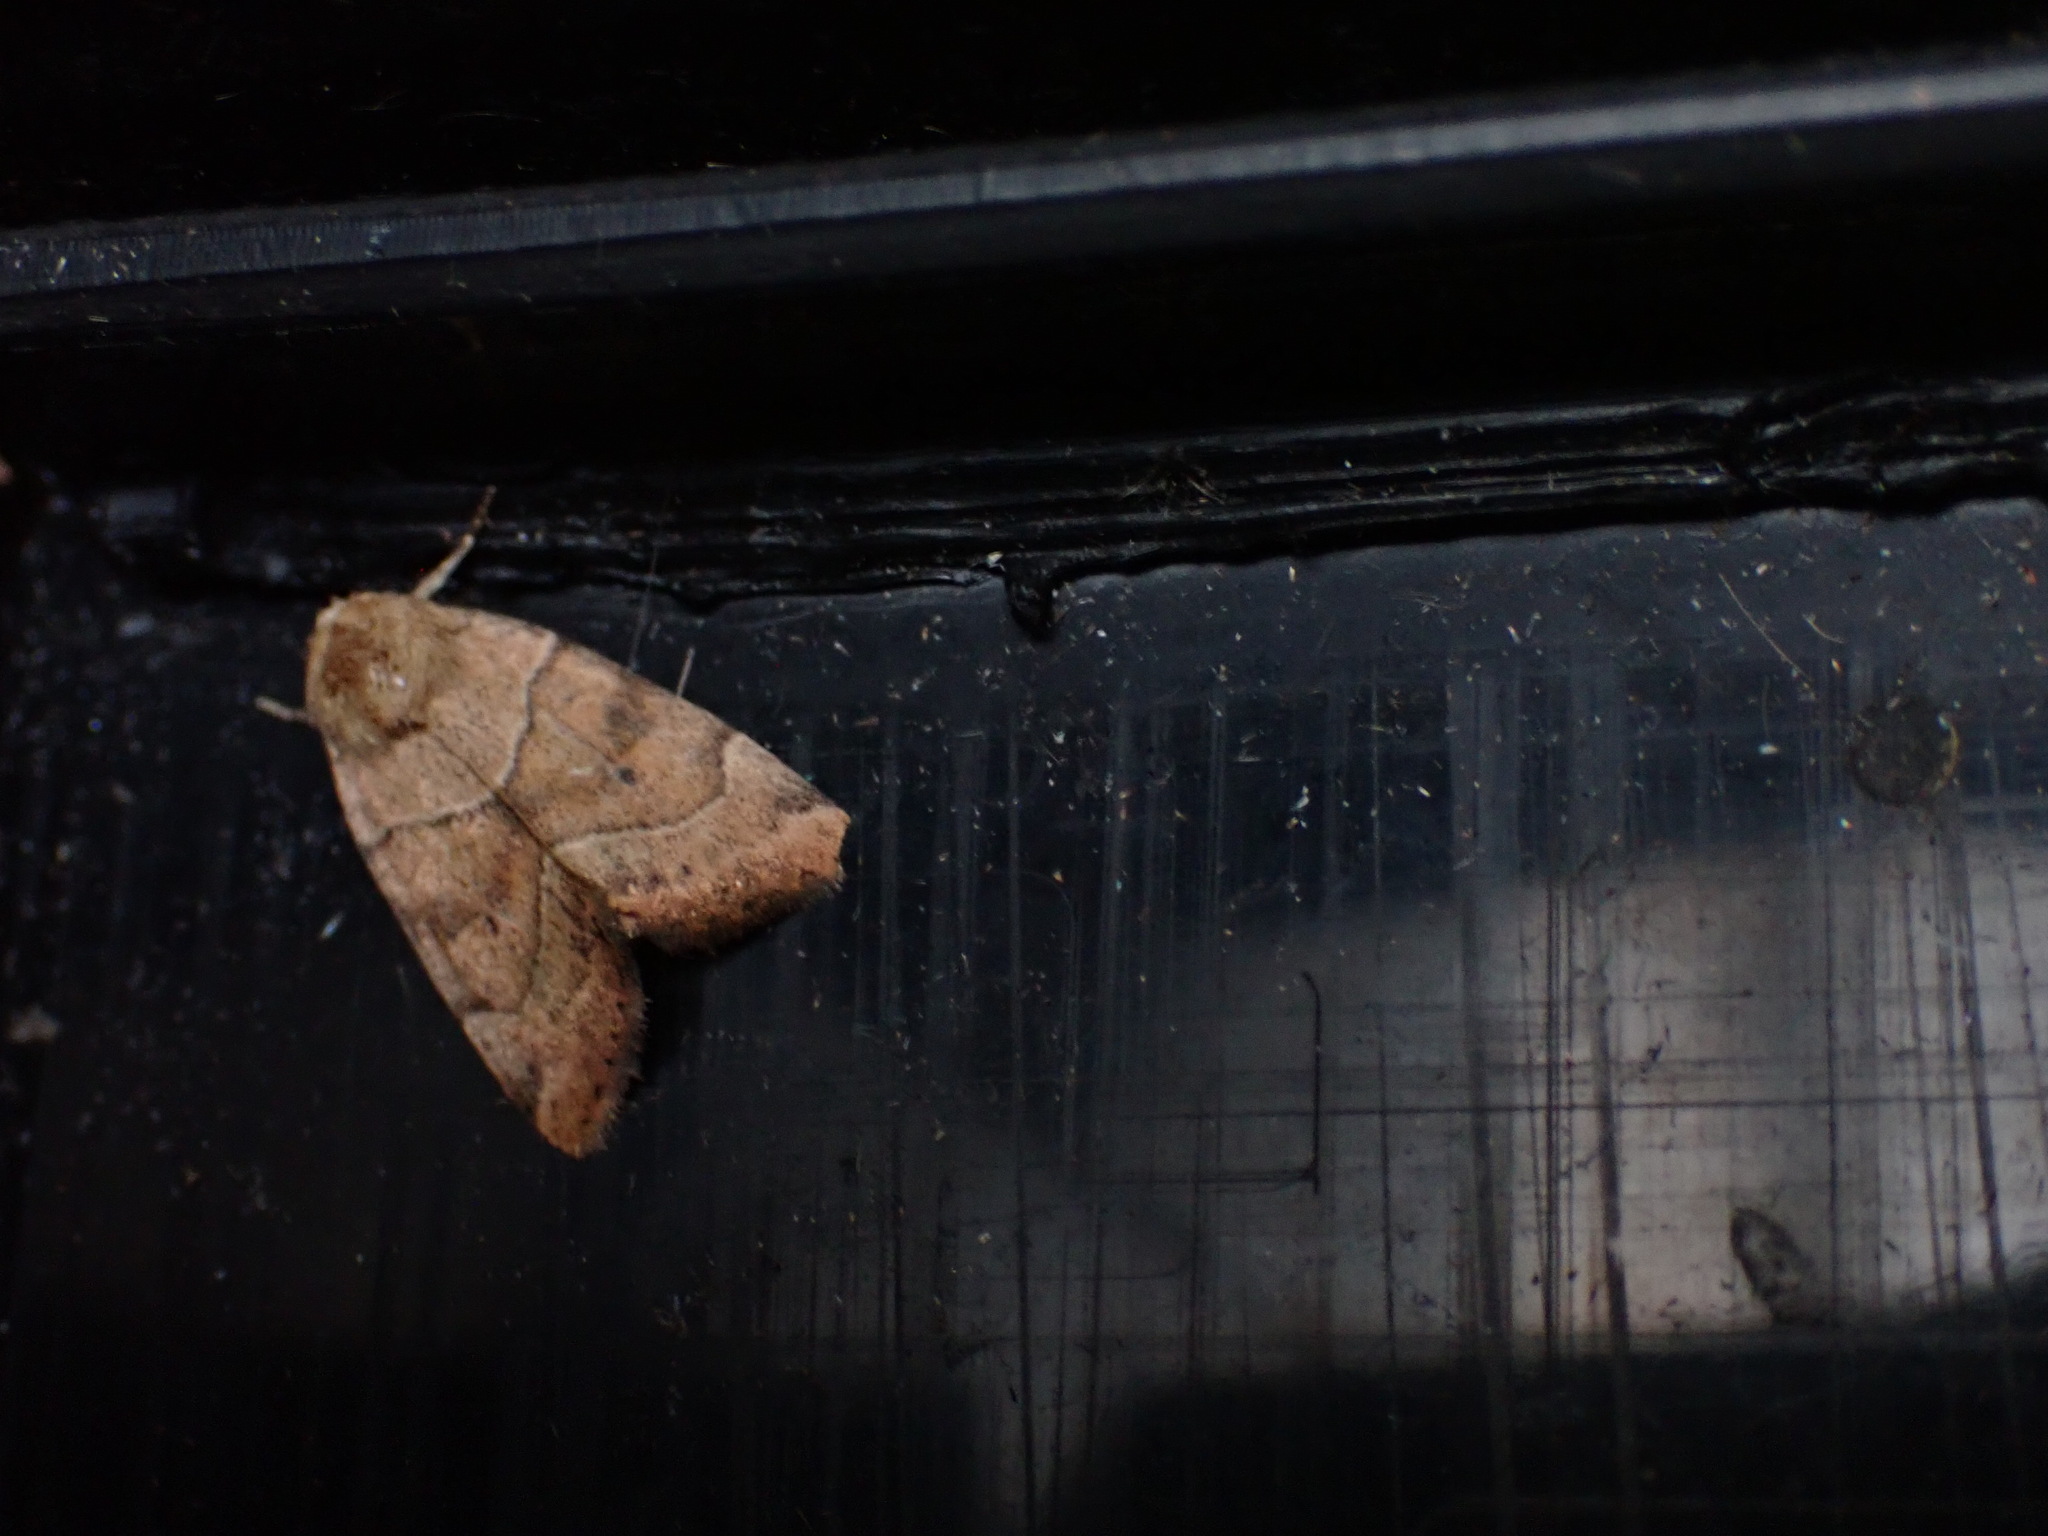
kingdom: Animalia
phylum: Arthropoda
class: Insecta
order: Lepidoptera
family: Noctuidae
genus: Cosmia
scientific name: Cosmia trapezina
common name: Dun-bar
